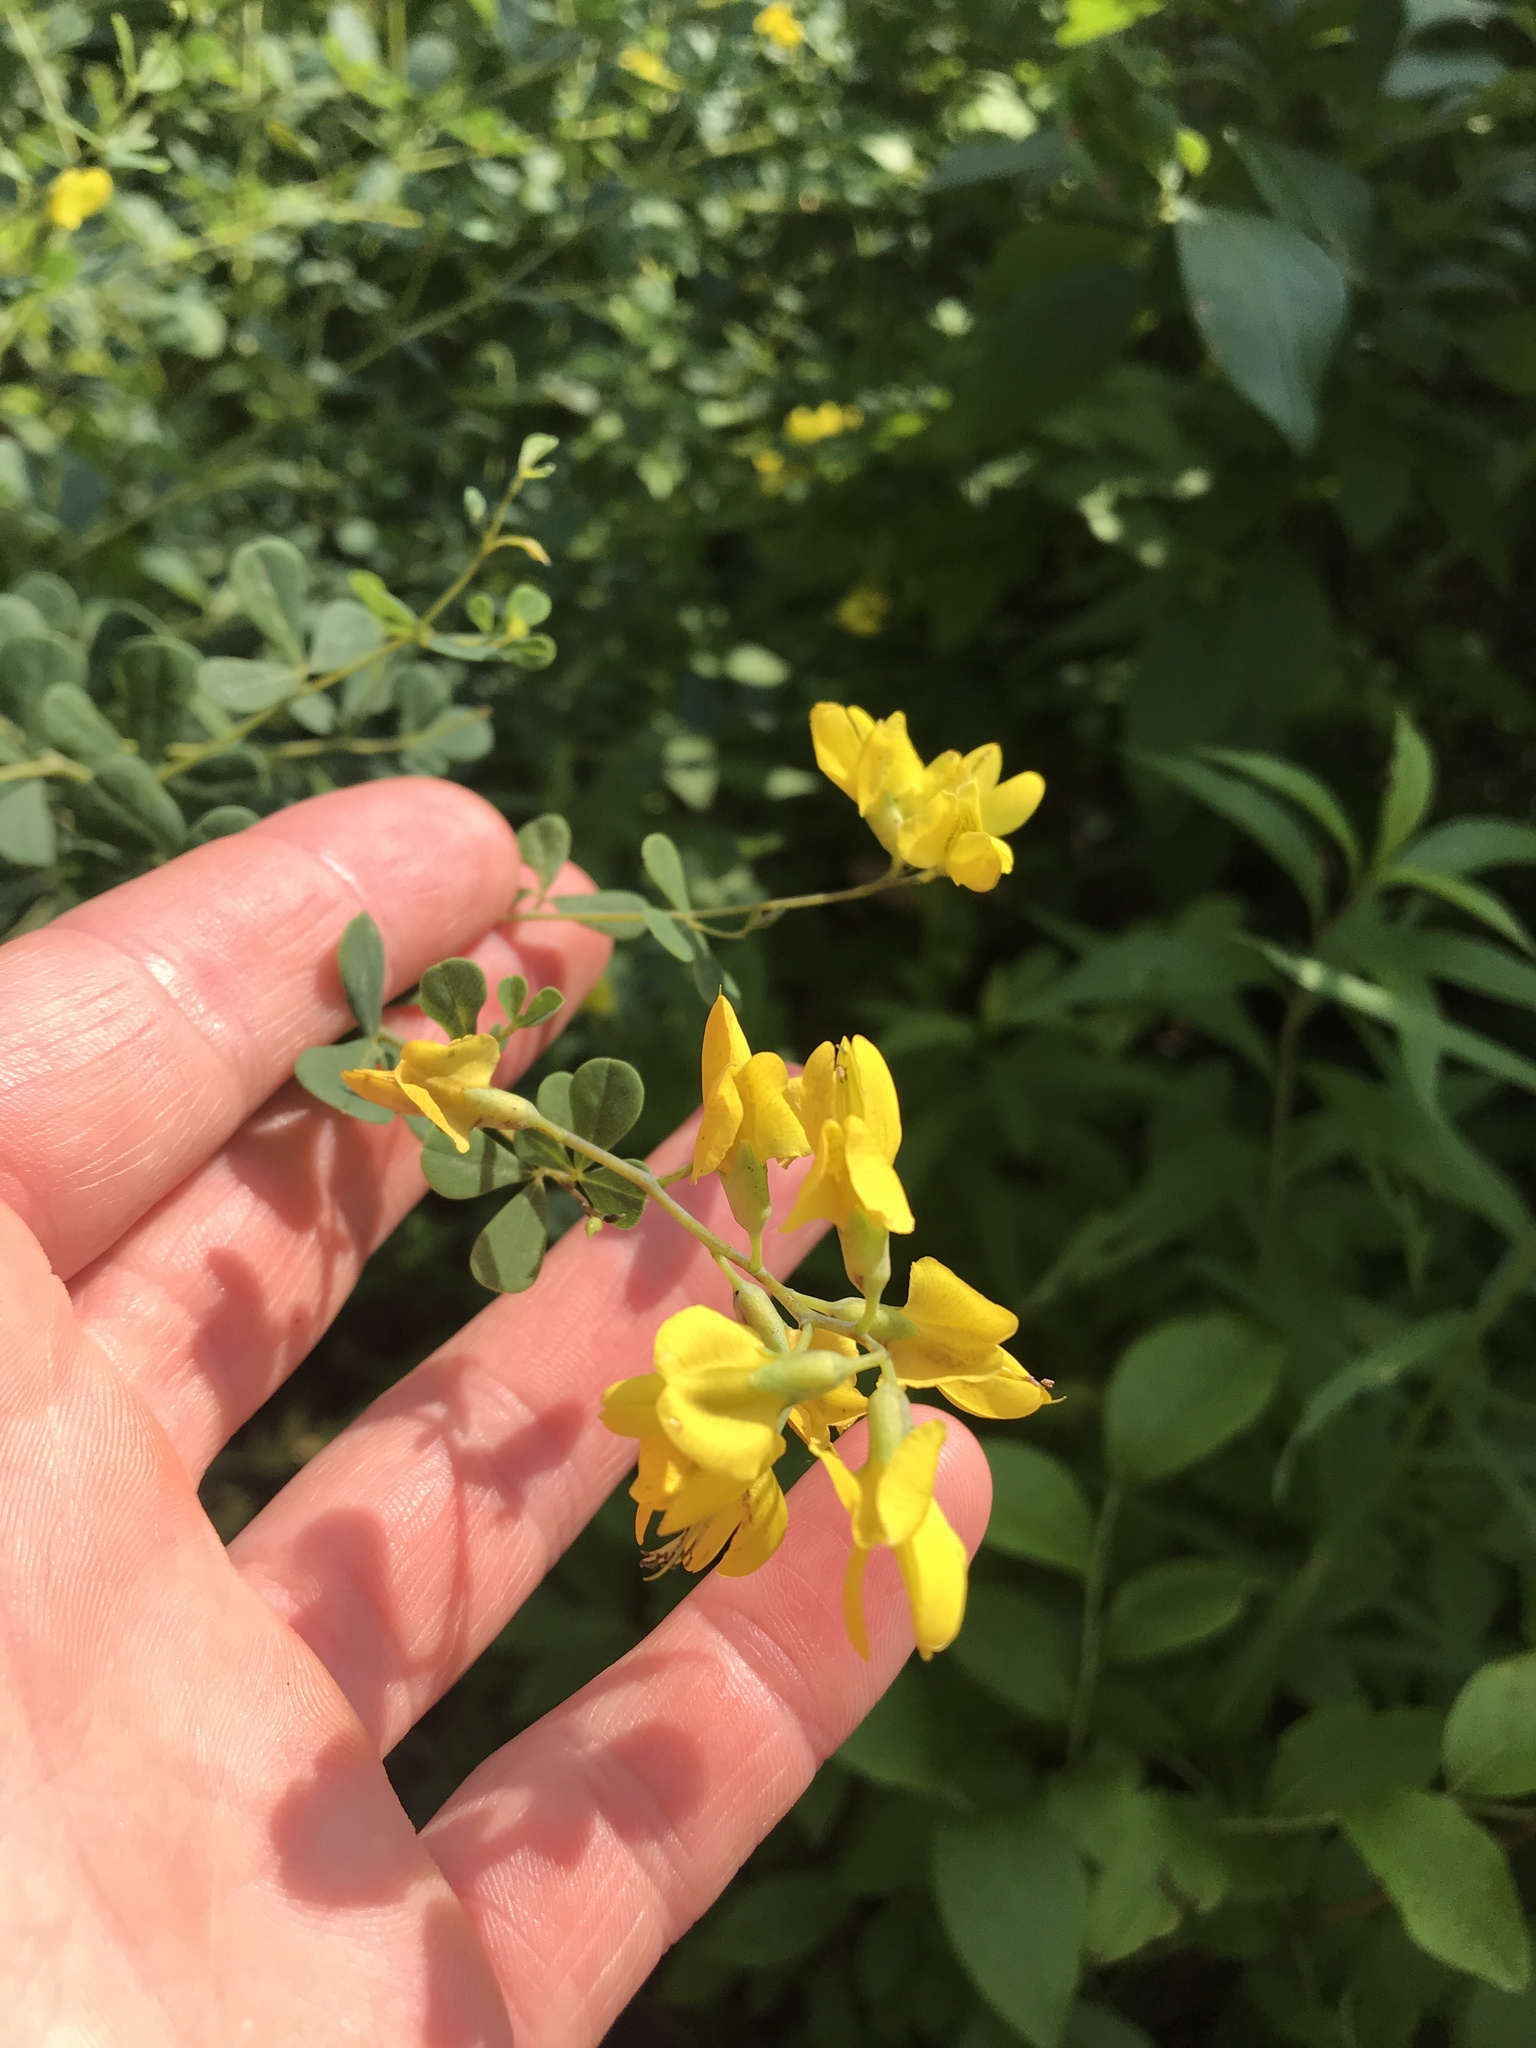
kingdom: Plantae
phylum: Tracheophyta
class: Magnoliopsida
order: Fabales
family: Fabaceae
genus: Baptisia
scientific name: Baptisia tinctoria
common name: Wild indigo
